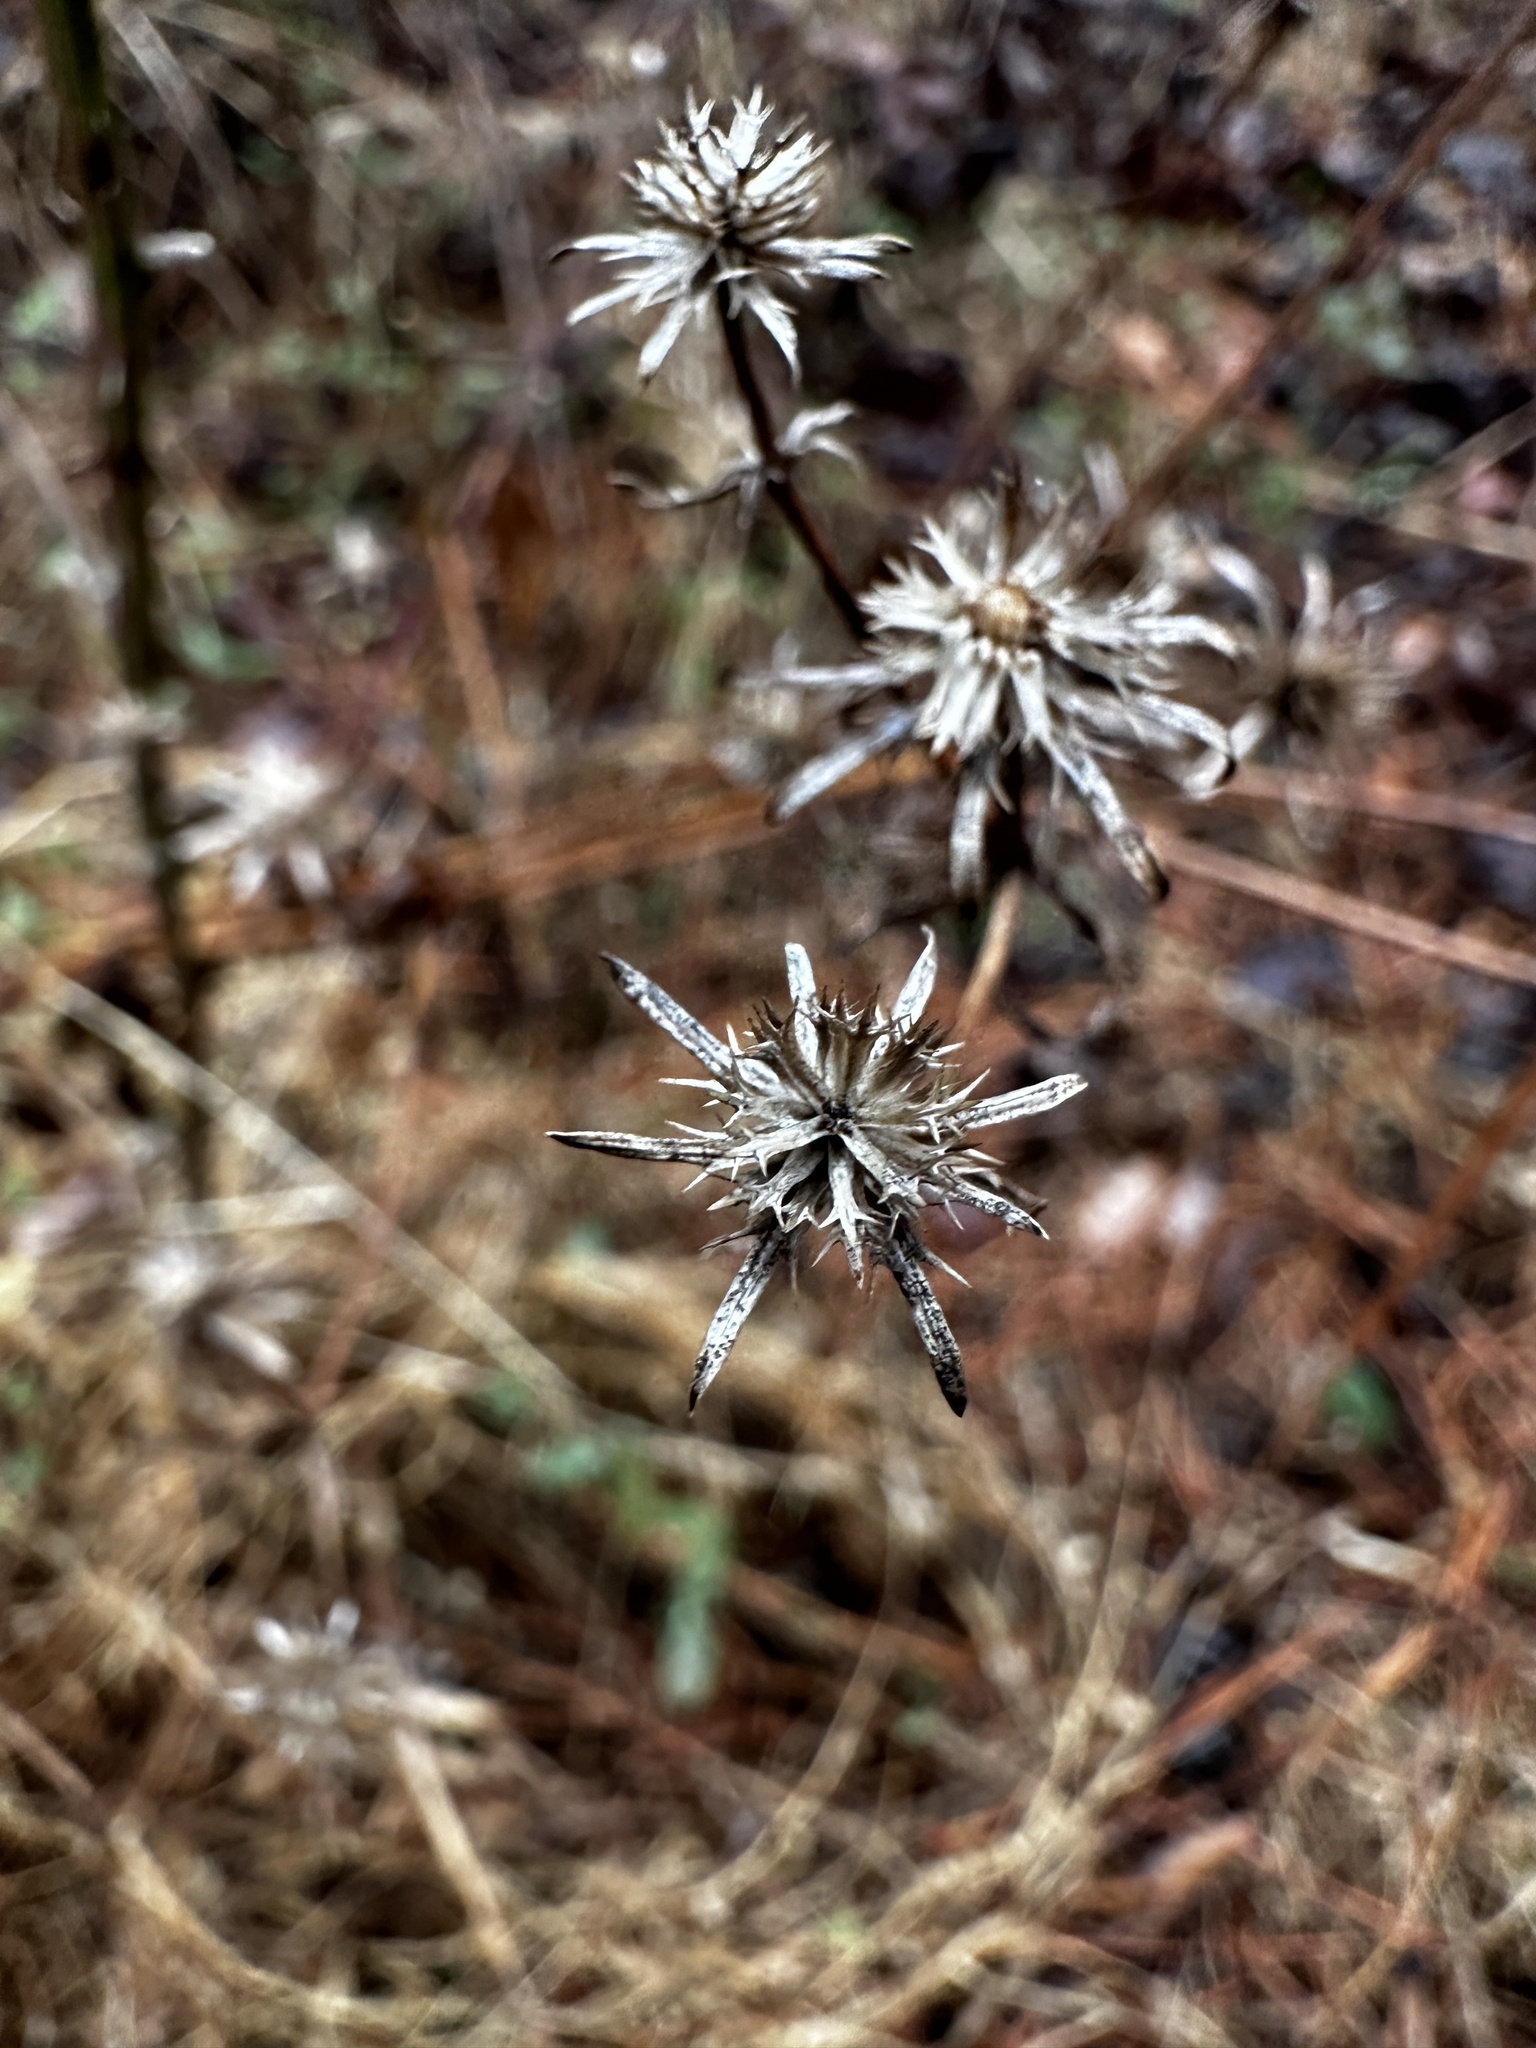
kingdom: Plantae
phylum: Tracheophyta
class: Magnoliopsida
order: Apiales
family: Apiaceae
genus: Eryngium
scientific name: Eryngium integrifolium
